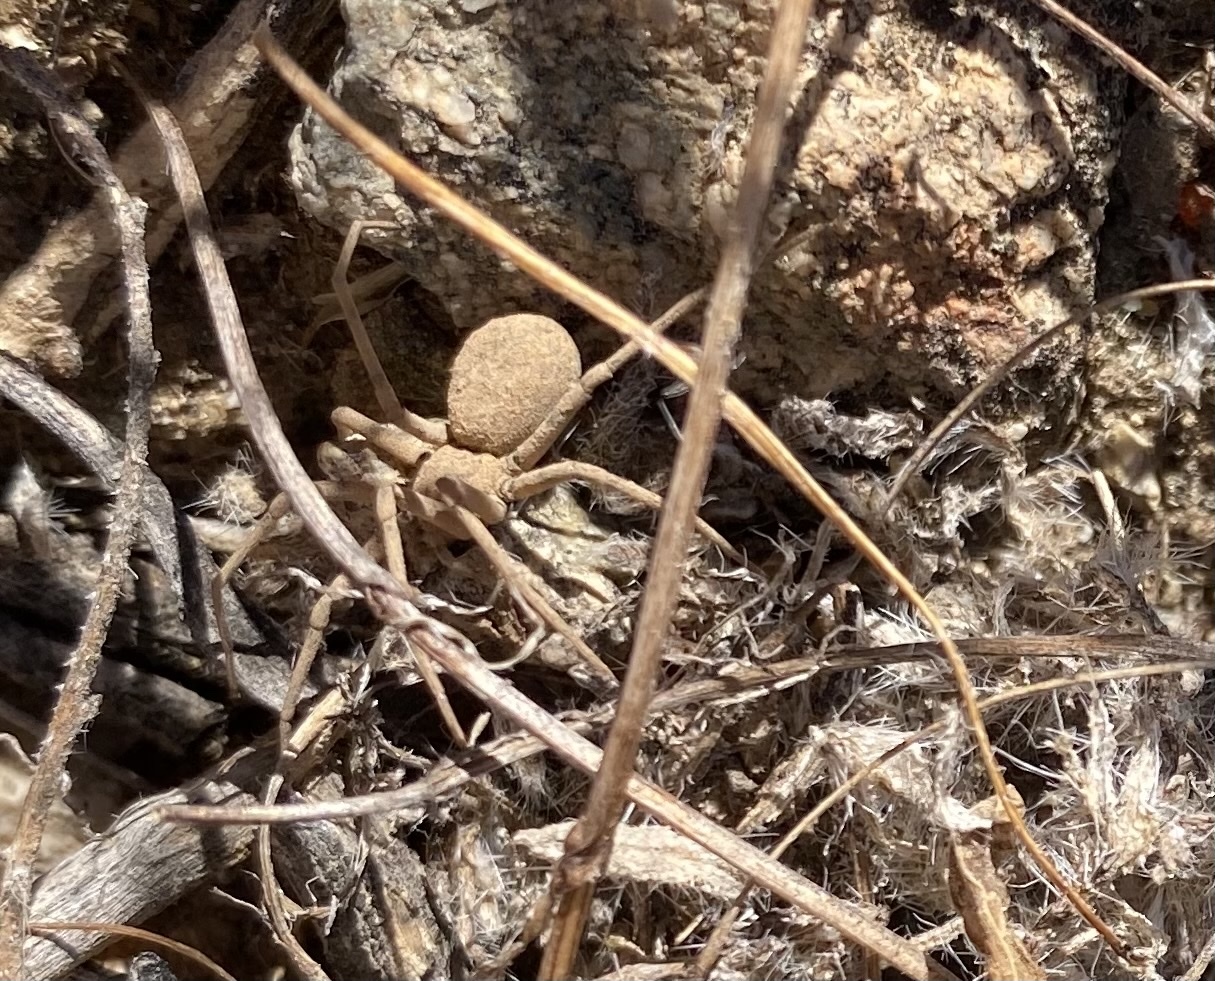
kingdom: Animalia
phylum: Arthropoda
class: Arachnida
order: Araneae
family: Homalonychidae
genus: Homalonychus
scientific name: Homalonychus selenopoides
